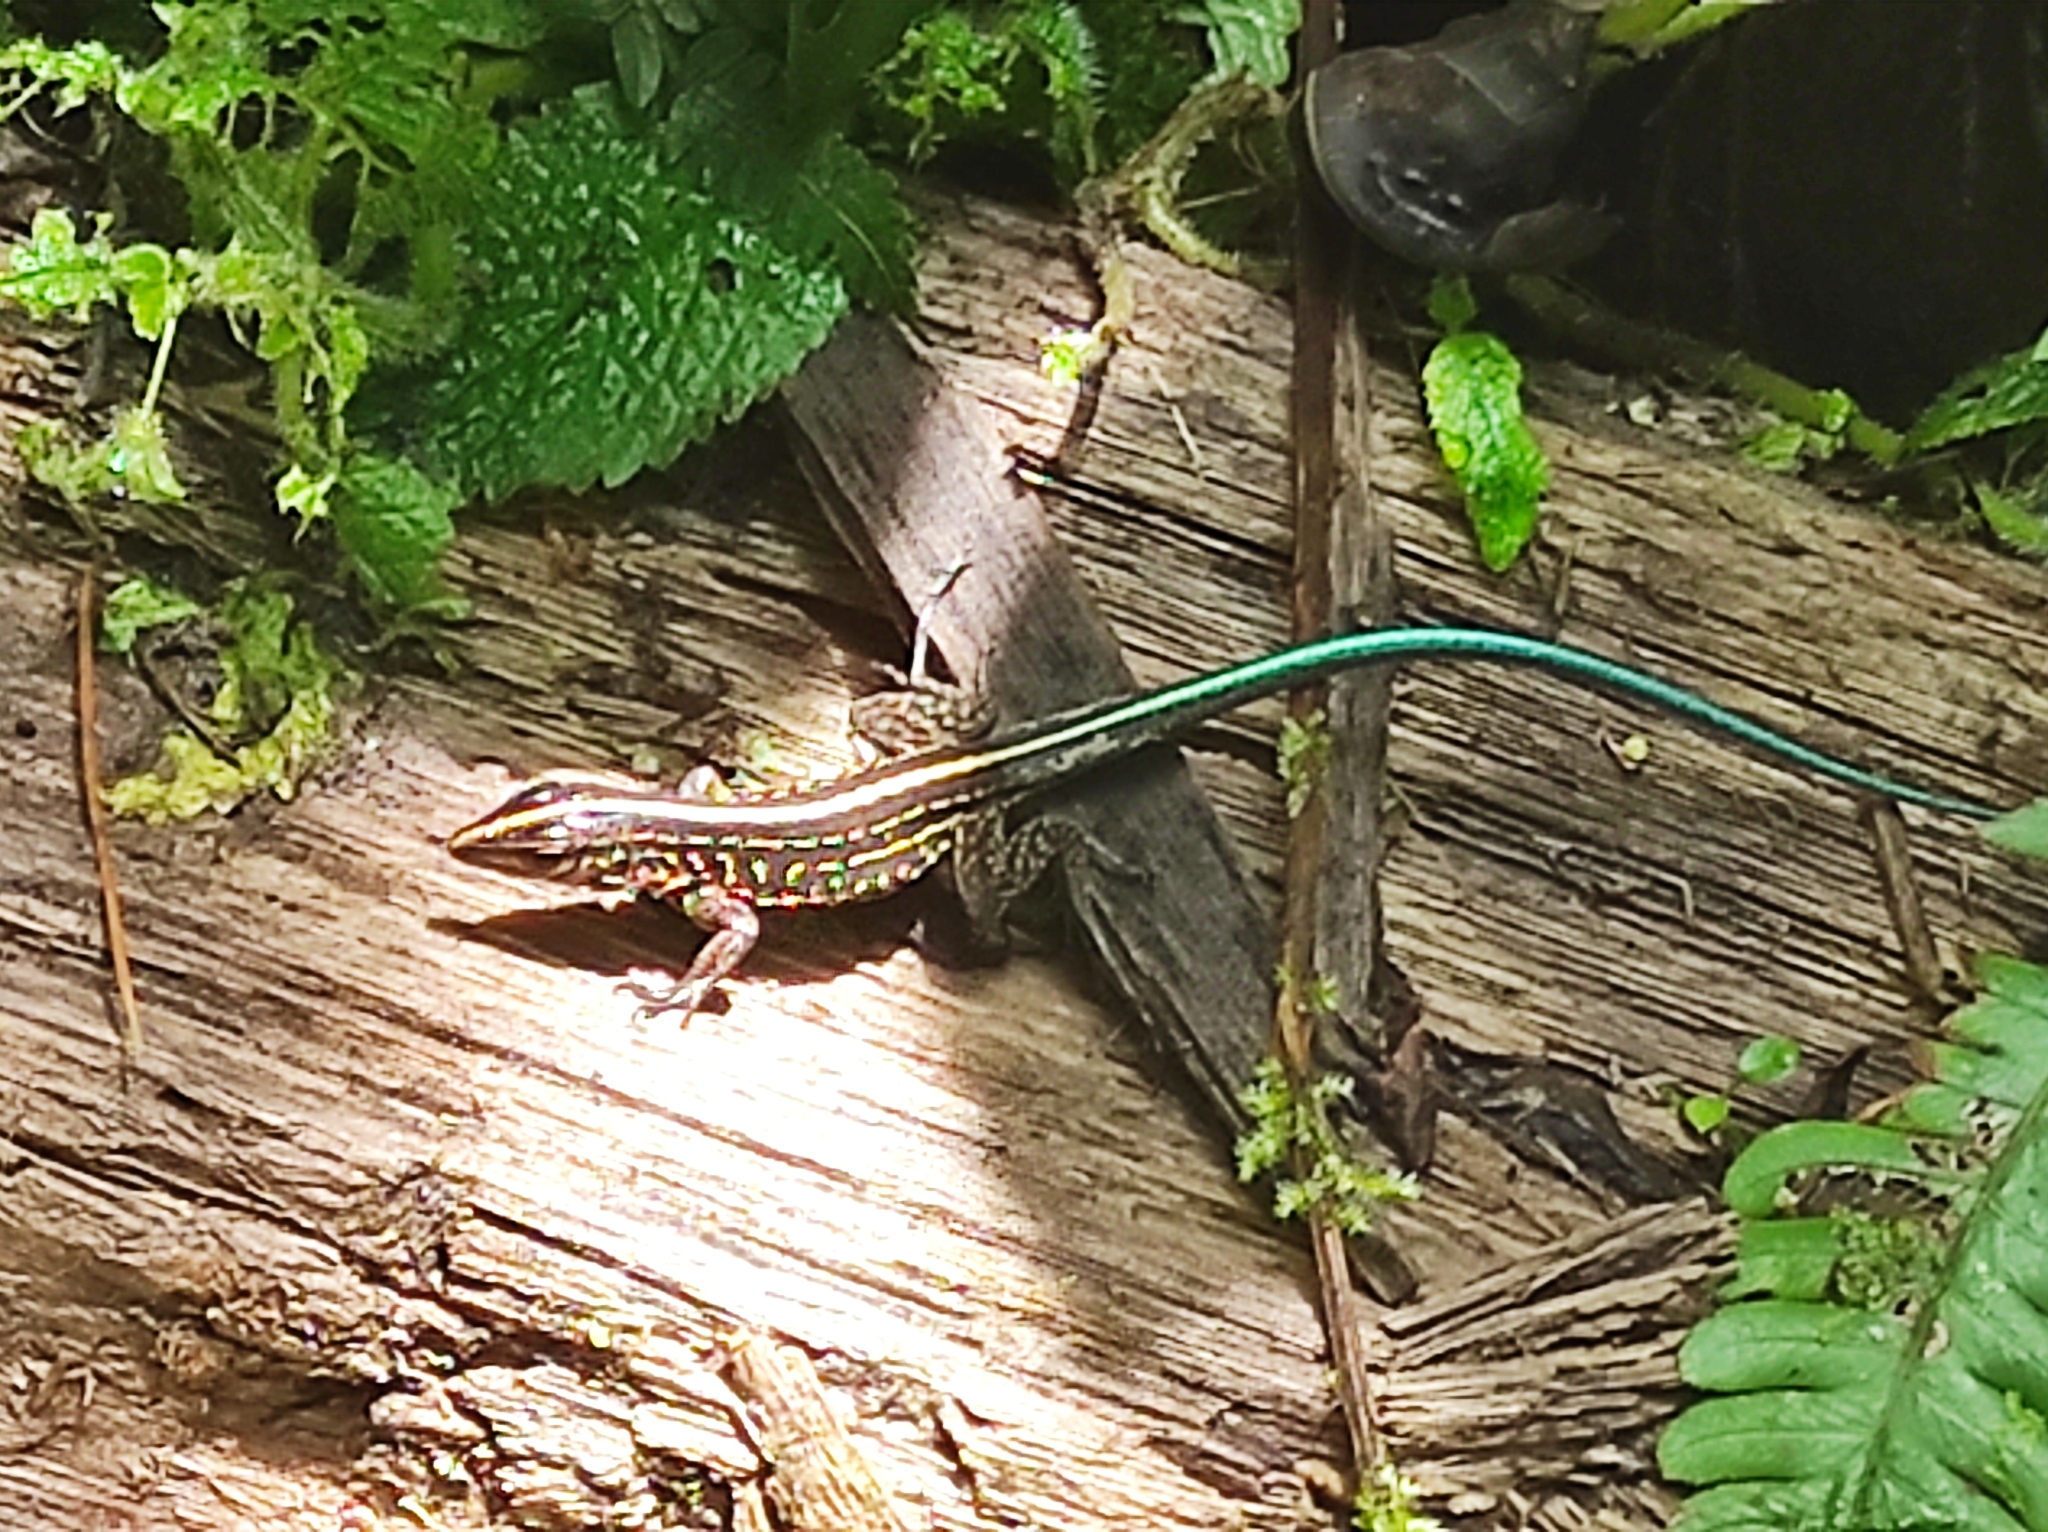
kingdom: Animalia
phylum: Chordata
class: Squamata
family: Teiidae
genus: Holcosus
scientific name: Holcosus festivus
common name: Middle american ameiva
